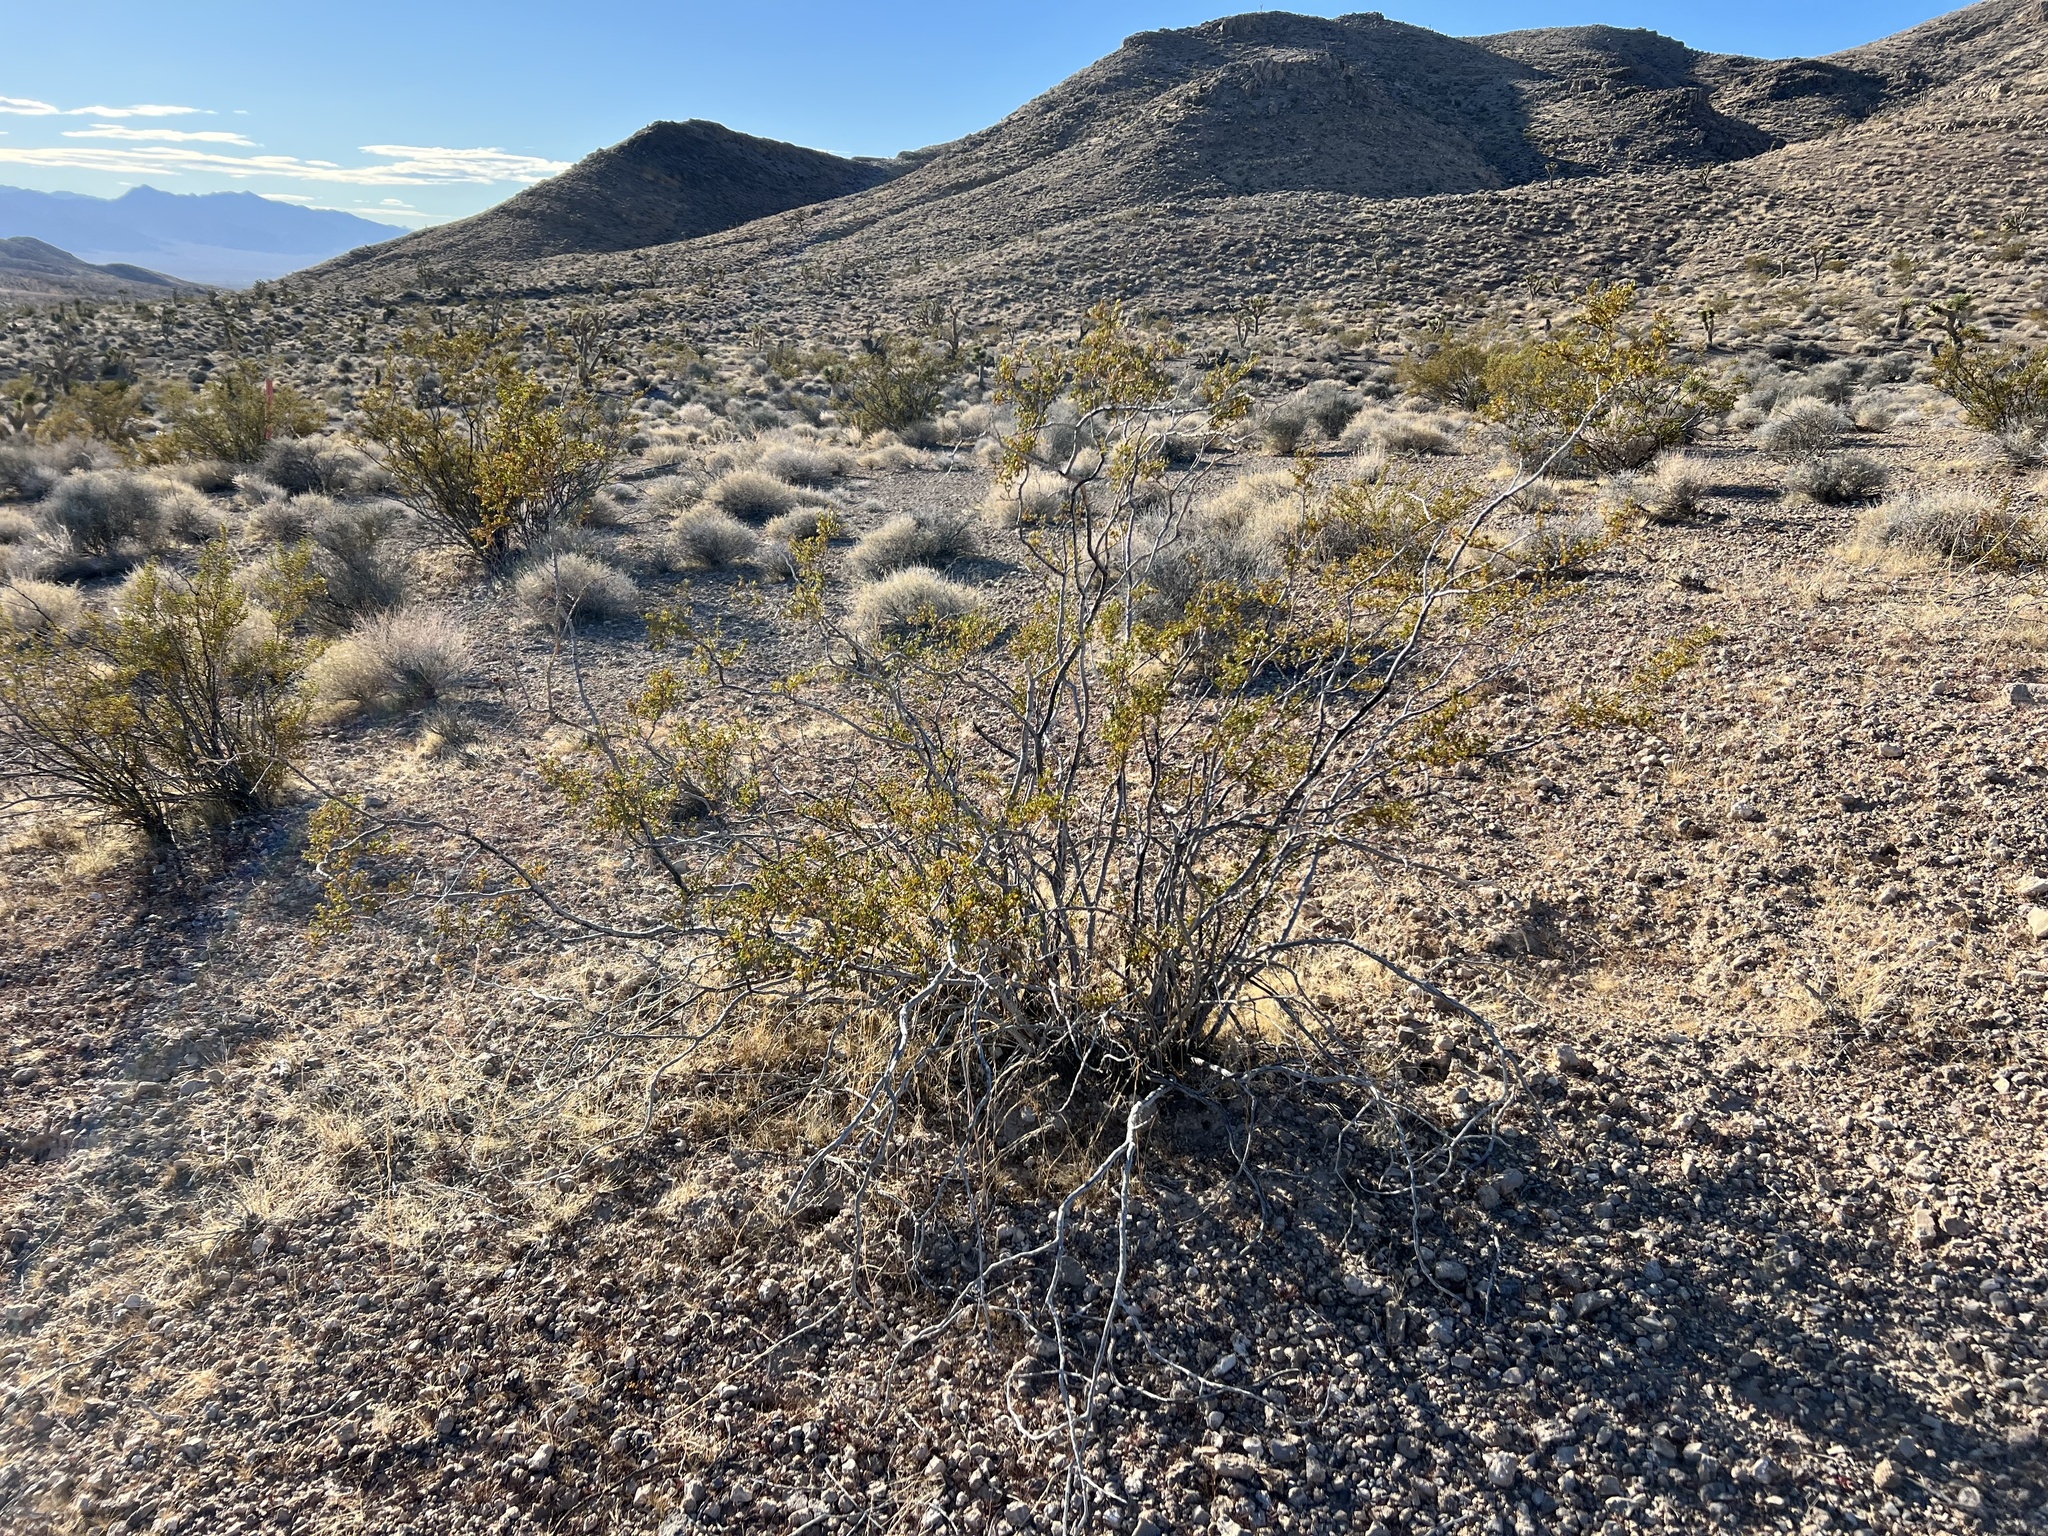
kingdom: Plantae
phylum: Tracheophyta
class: Magnoliopsida
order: Zygophyllales
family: Zygophyllaceae
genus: Larrea
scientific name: Larrea tridentata
